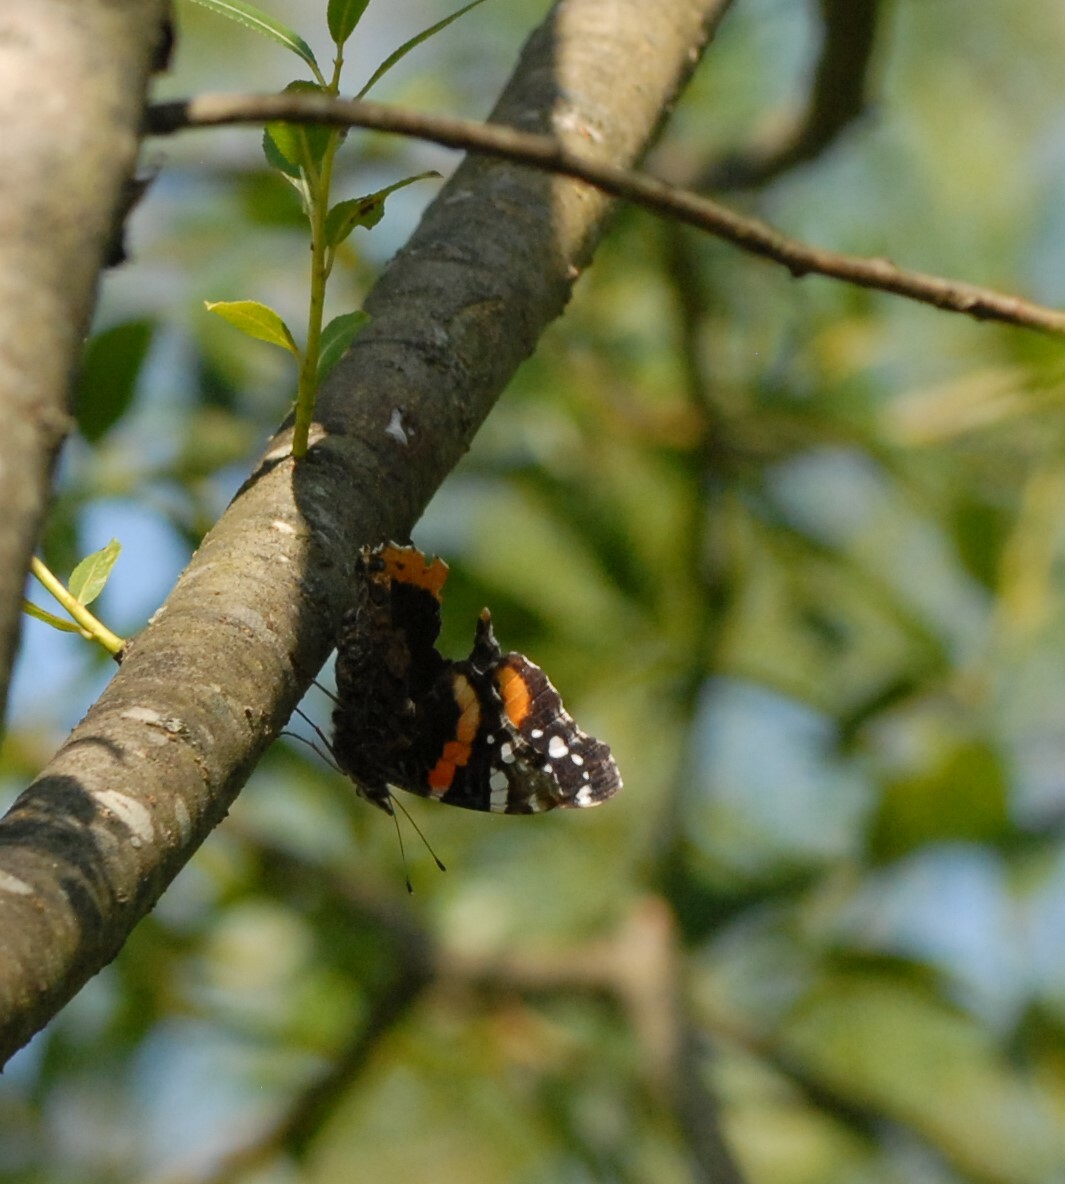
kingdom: Animalia
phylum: Arthropoda
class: Insecta
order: Lepidoptera
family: Nymphalidae
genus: Vanessa
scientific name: Vanessa atalanta
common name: Red admiral
